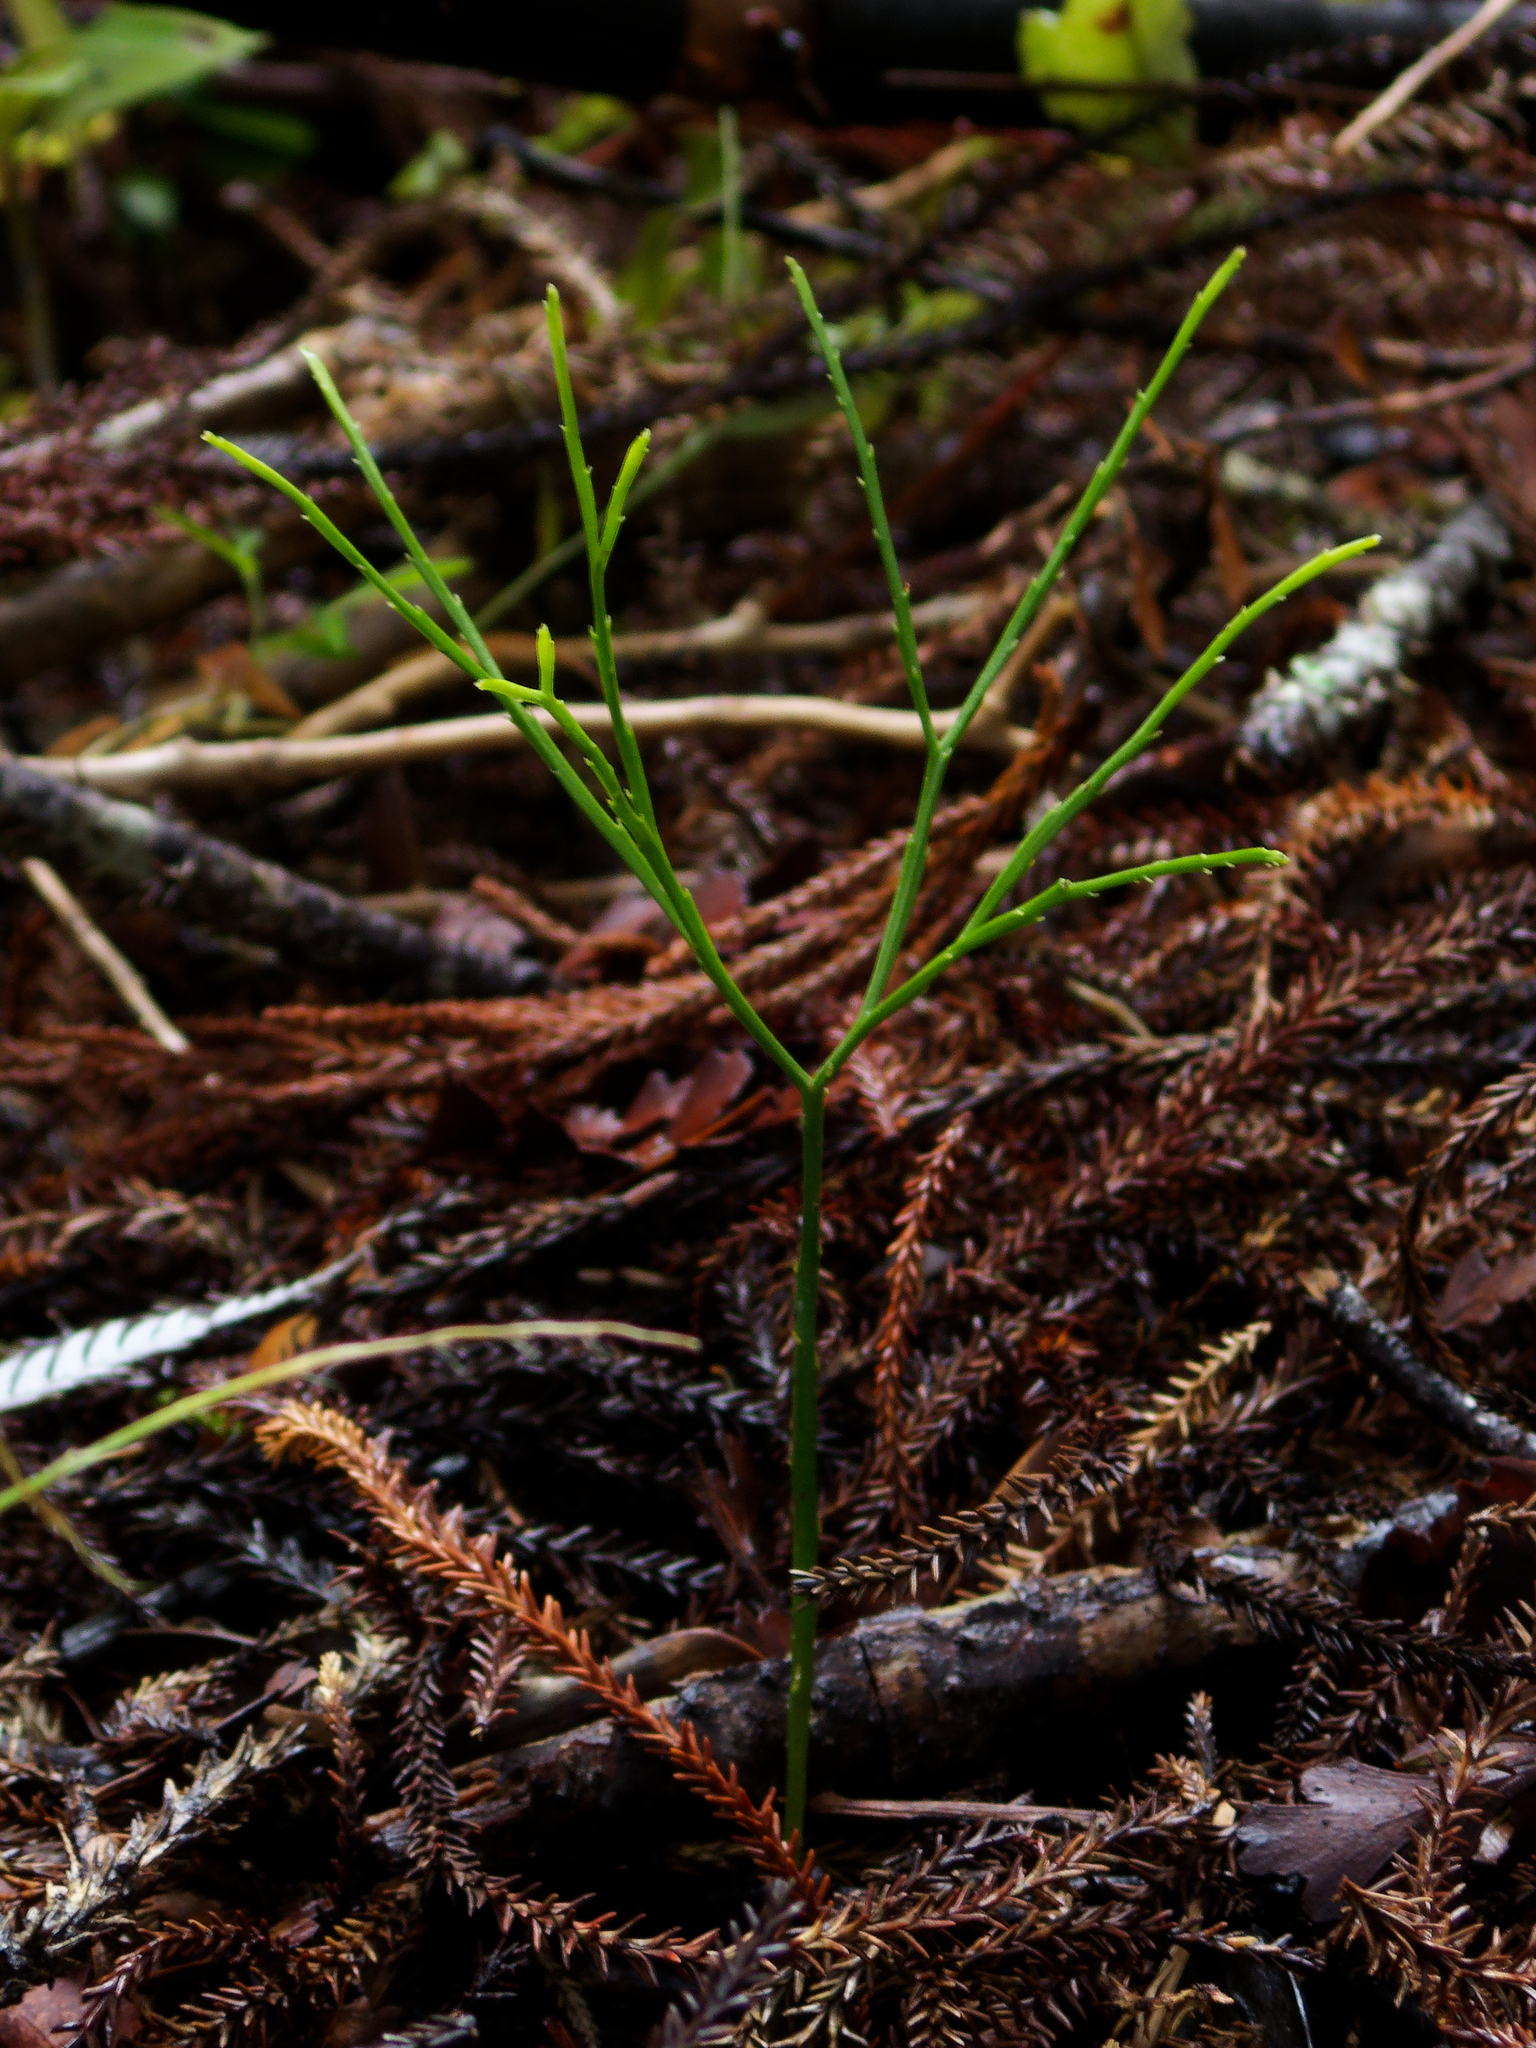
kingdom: Plantae
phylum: Tracheophyta
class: Polypodiopsida
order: Psilotales
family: Psilotaceae
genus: Psilotum
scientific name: Psilotum nudum
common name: Skeleton fork fern
